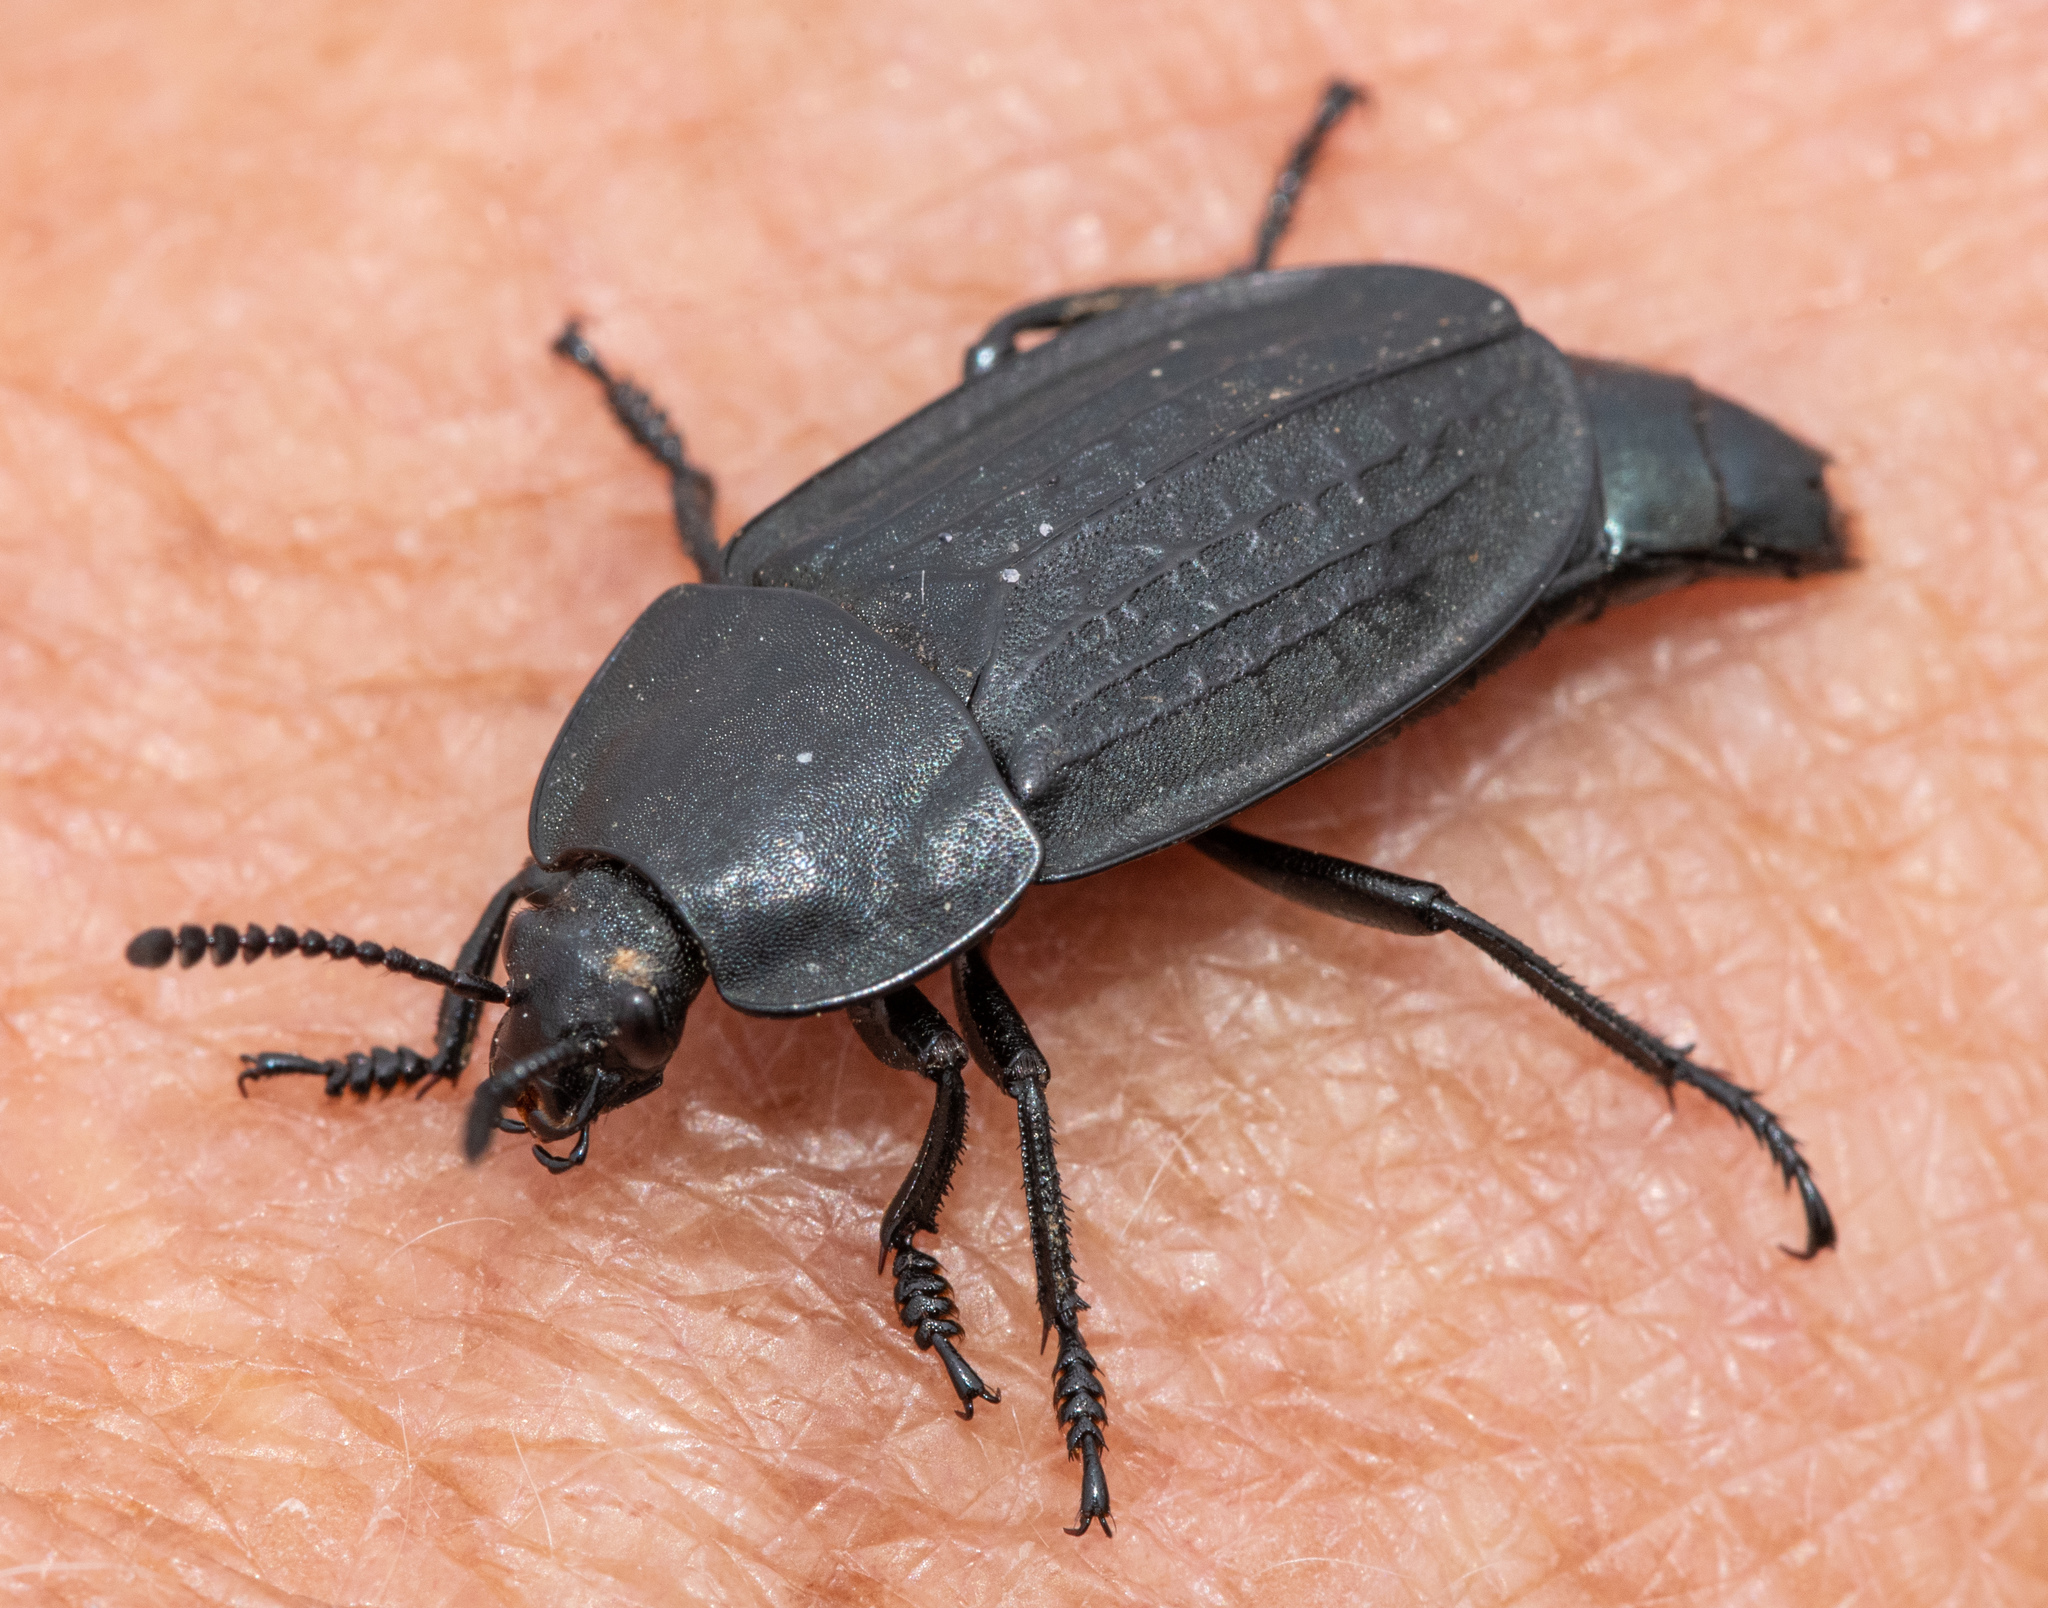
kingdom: Animalia
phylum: Arthropoda
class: Insecta
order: Coleoptera
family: Staphylinidae
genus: Heterosilpha
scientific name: Heterosilpha ramosa
